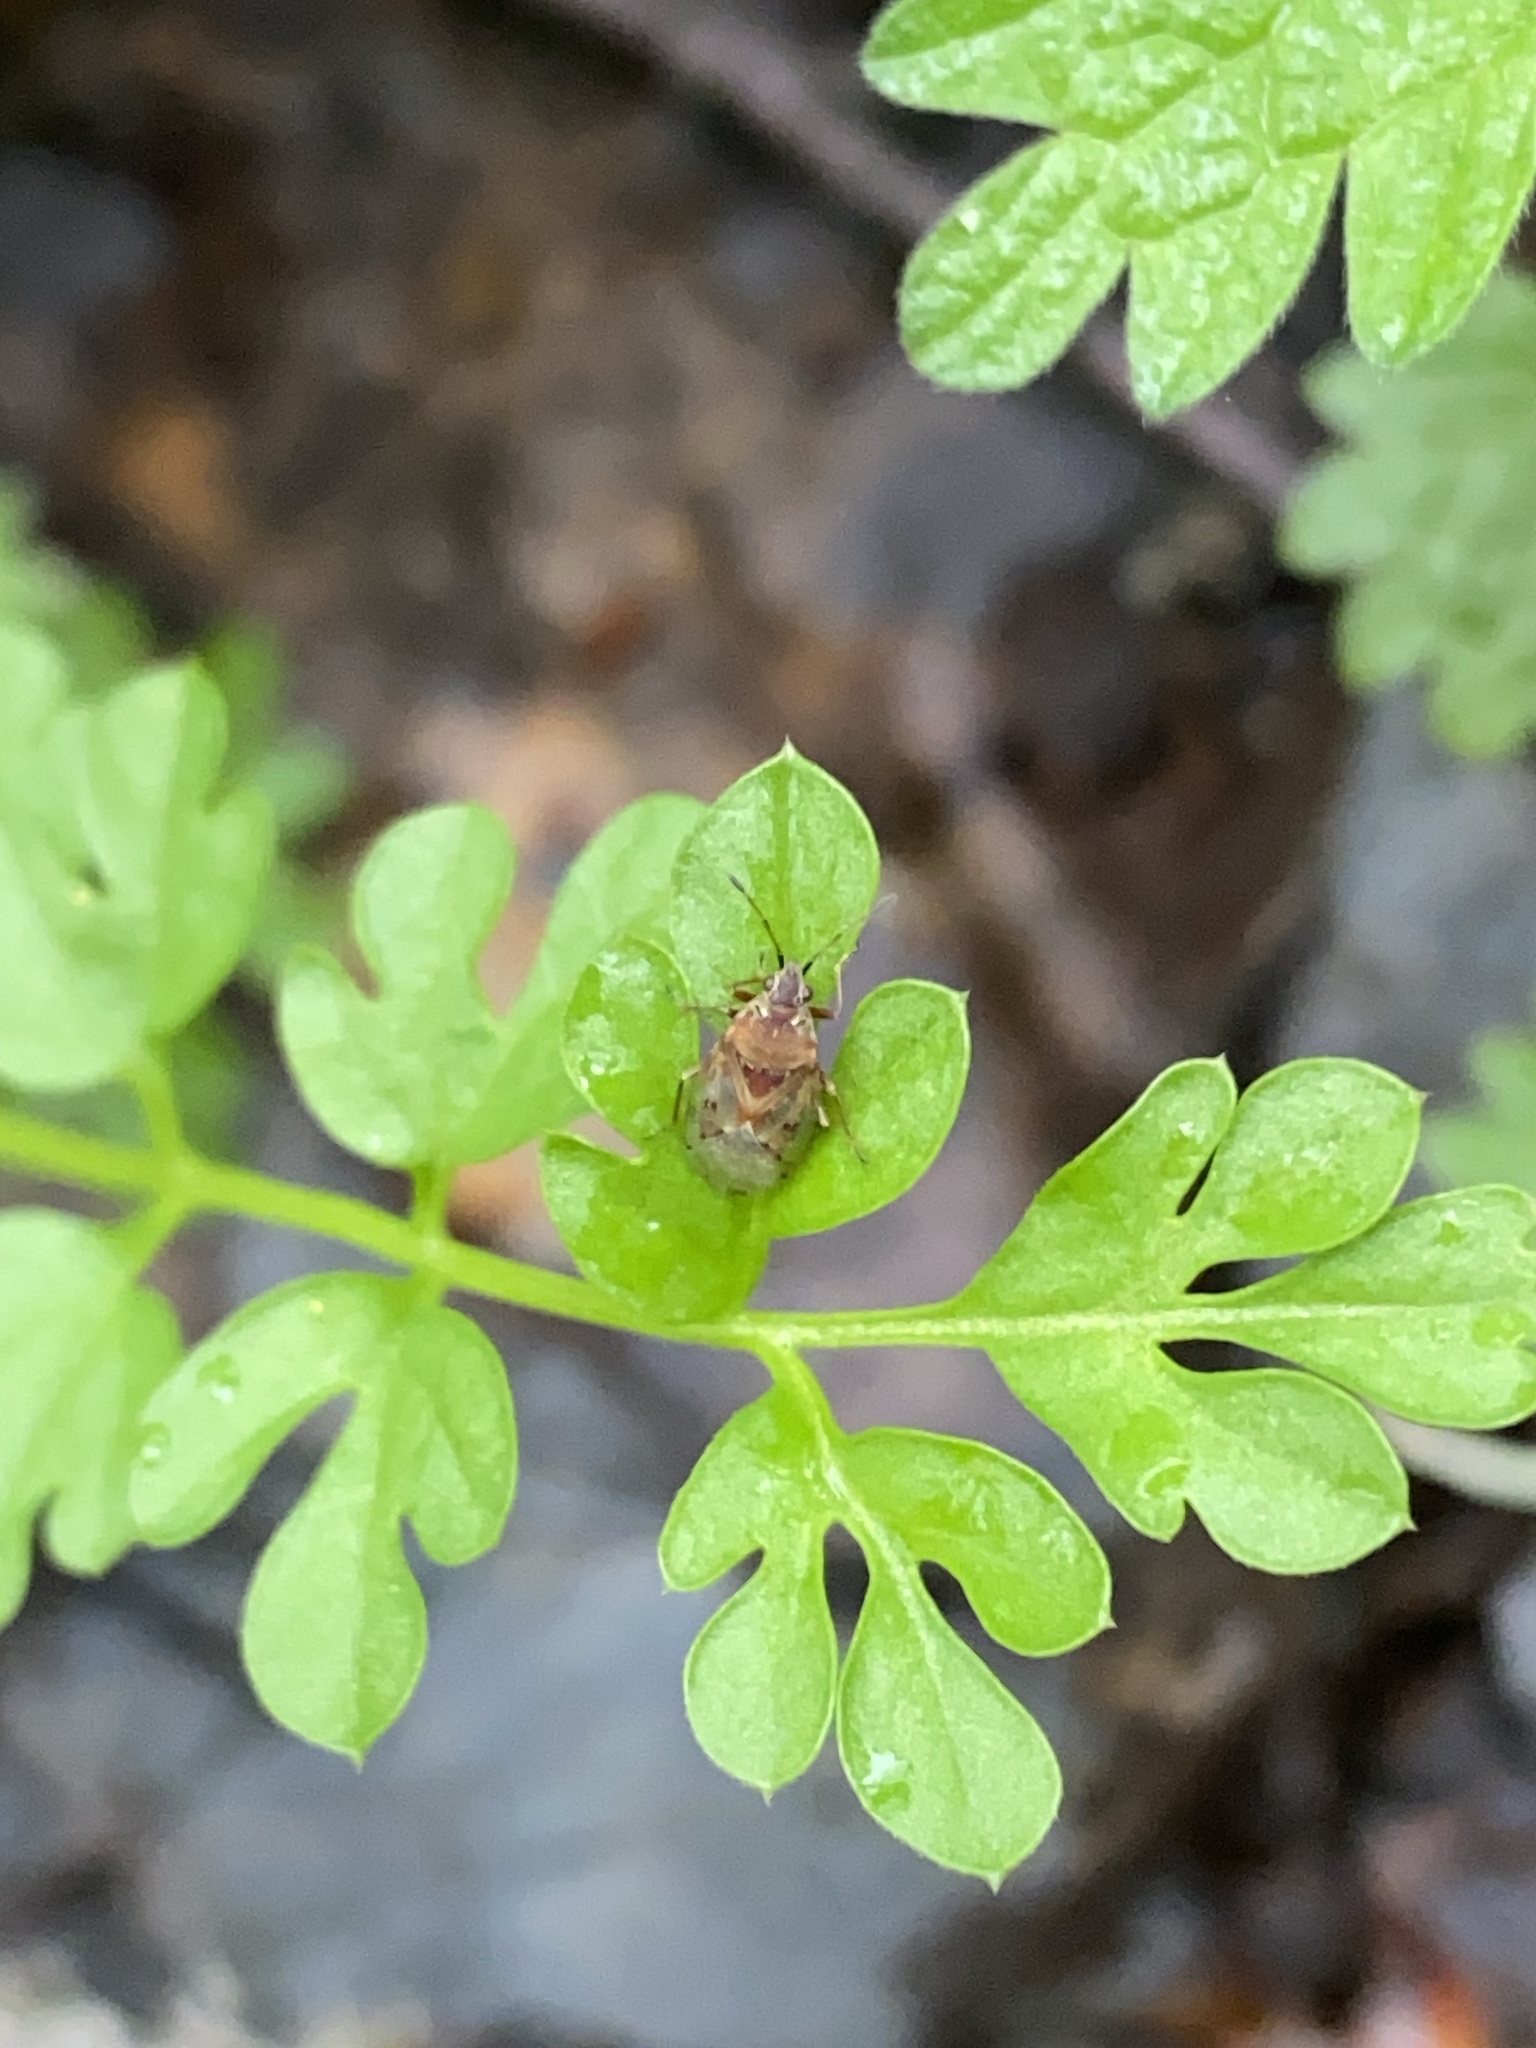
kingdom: Animalia
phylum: Arthropoda
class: Insecta
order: Hemiptera
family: Lygaeidae
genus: Kleidocerys
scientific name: Kleidocerys resedae
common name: Birch catkin bug
